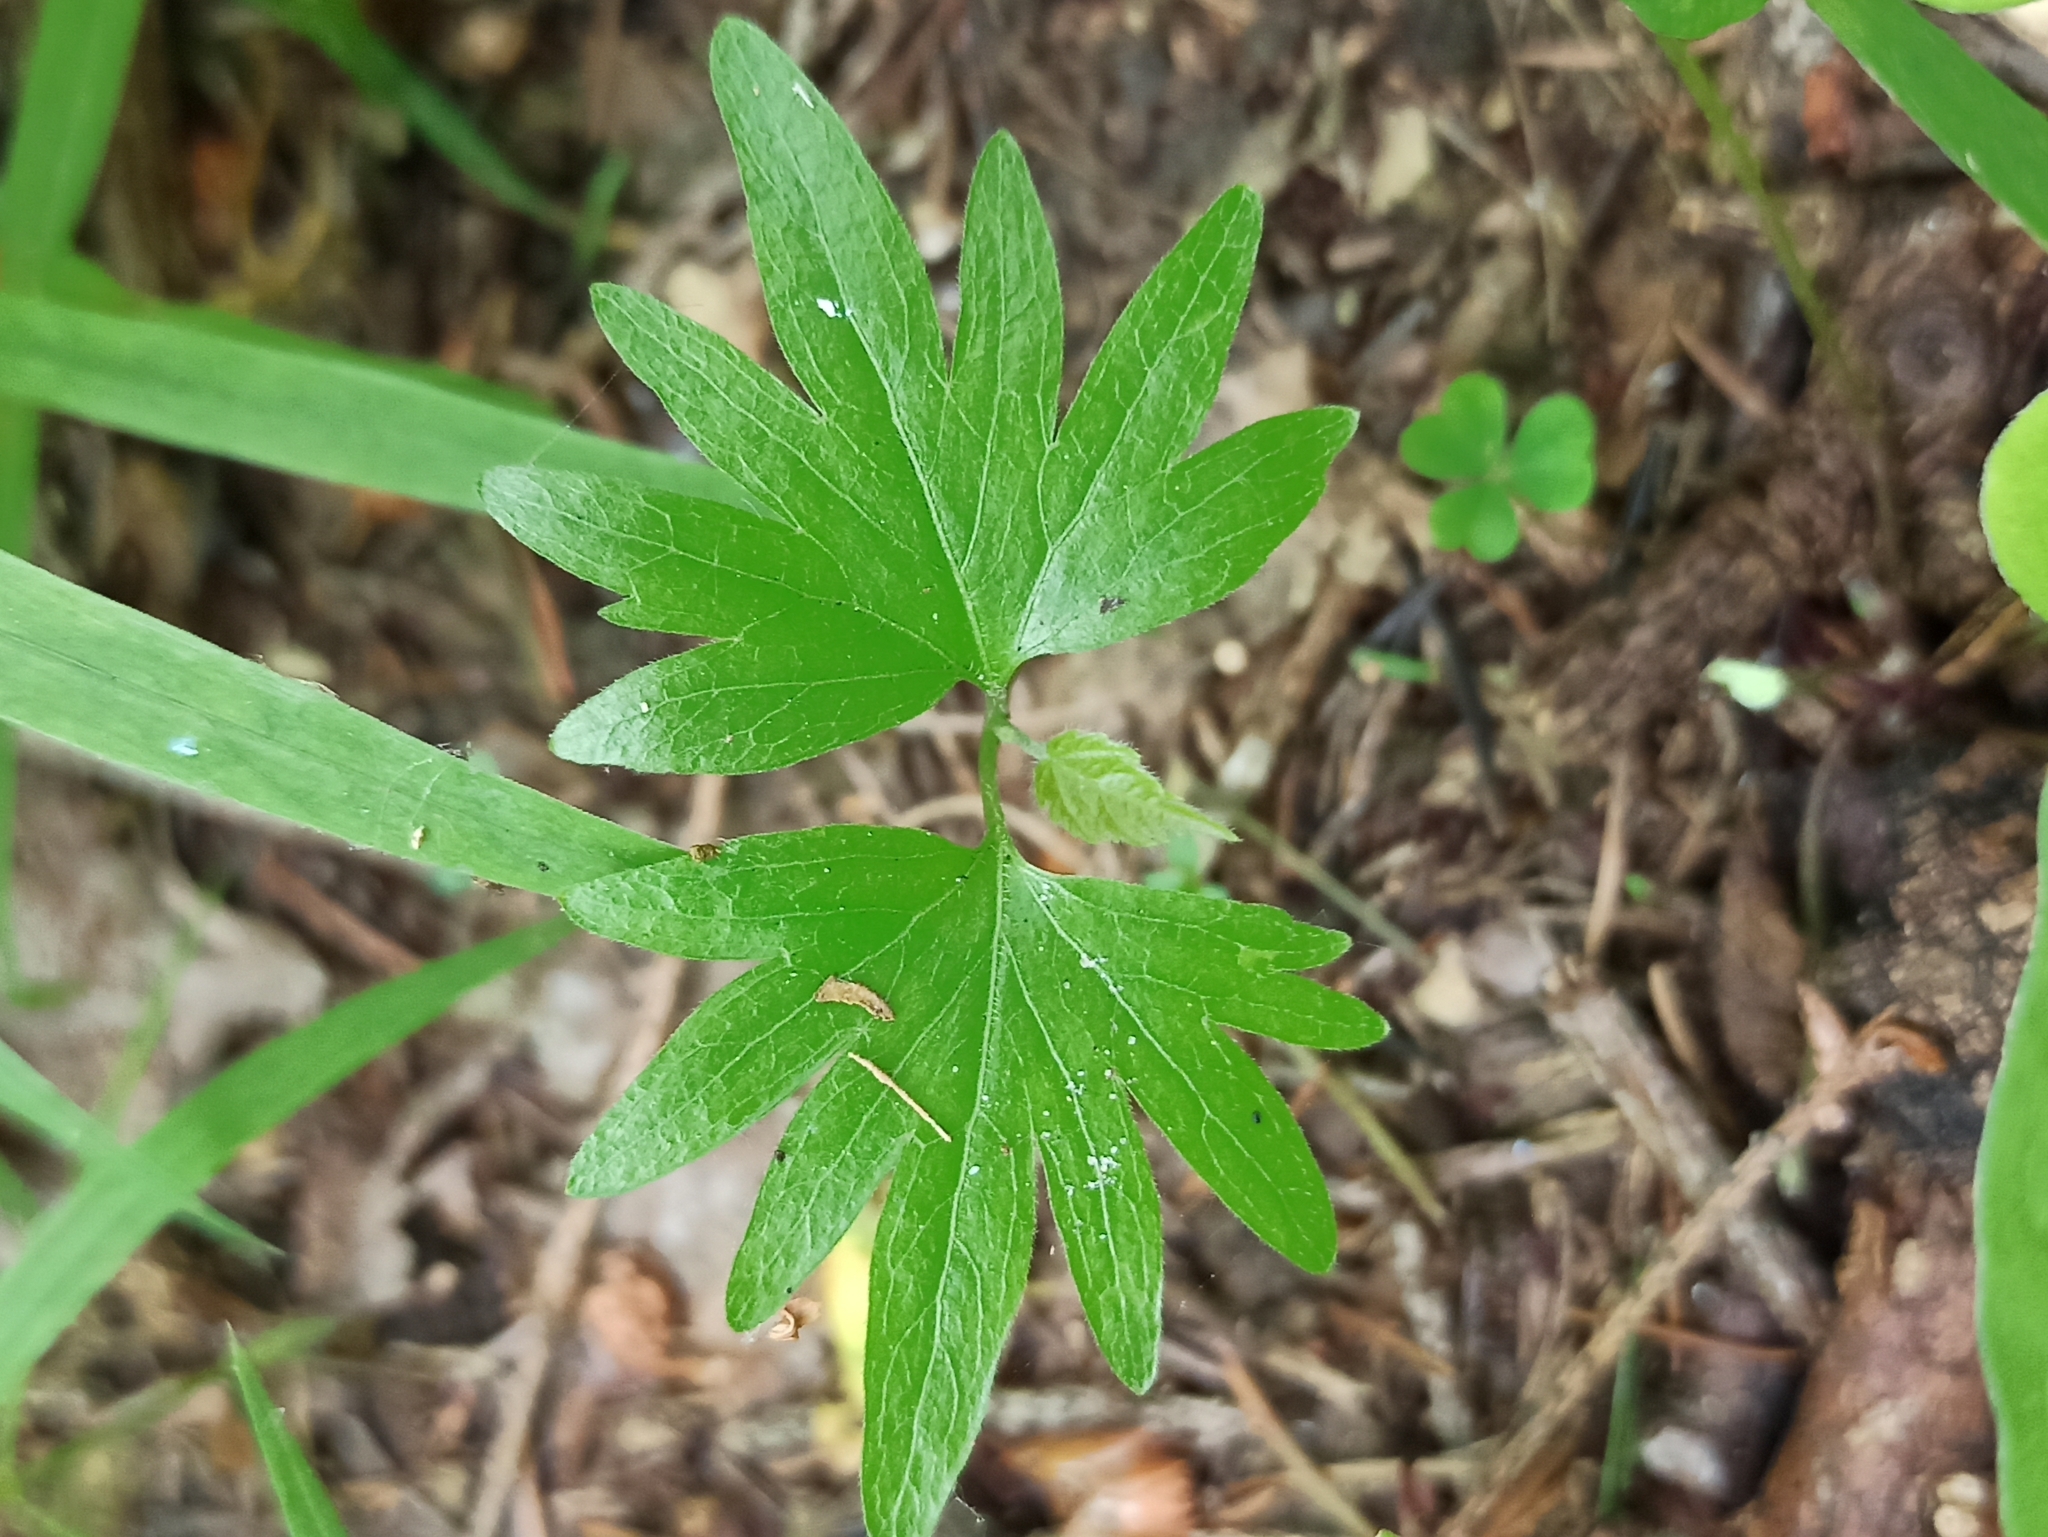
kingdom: Plantae
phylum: Tracheophyta
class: Magnoliopsida
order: Malvales
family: Malvaceae
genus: Tilia
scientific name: Tilia cordata
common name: Small-leaved lime
